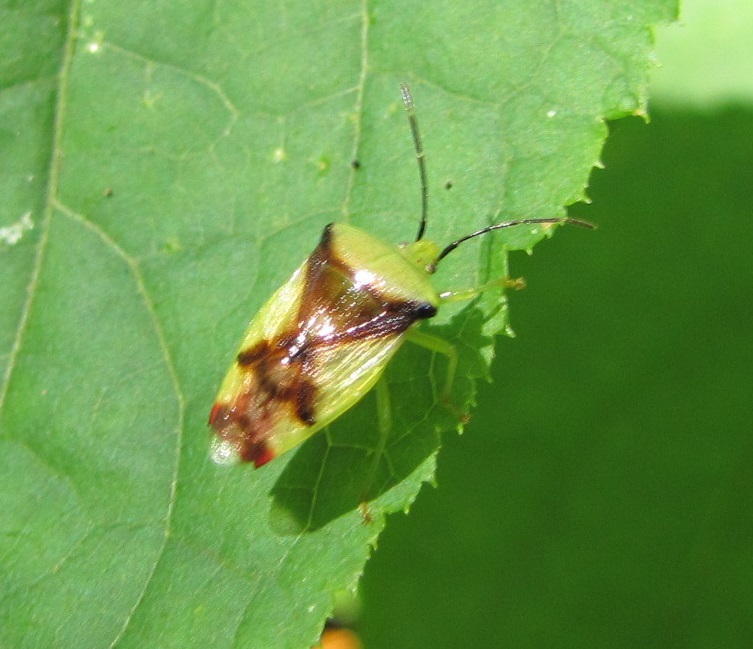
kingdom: Animalia
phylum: Arthropoda
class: Insecta
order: Hemiptera
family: Acanthosomatidae
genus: Elasmostethus
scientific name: Elasmostethus atricornis
